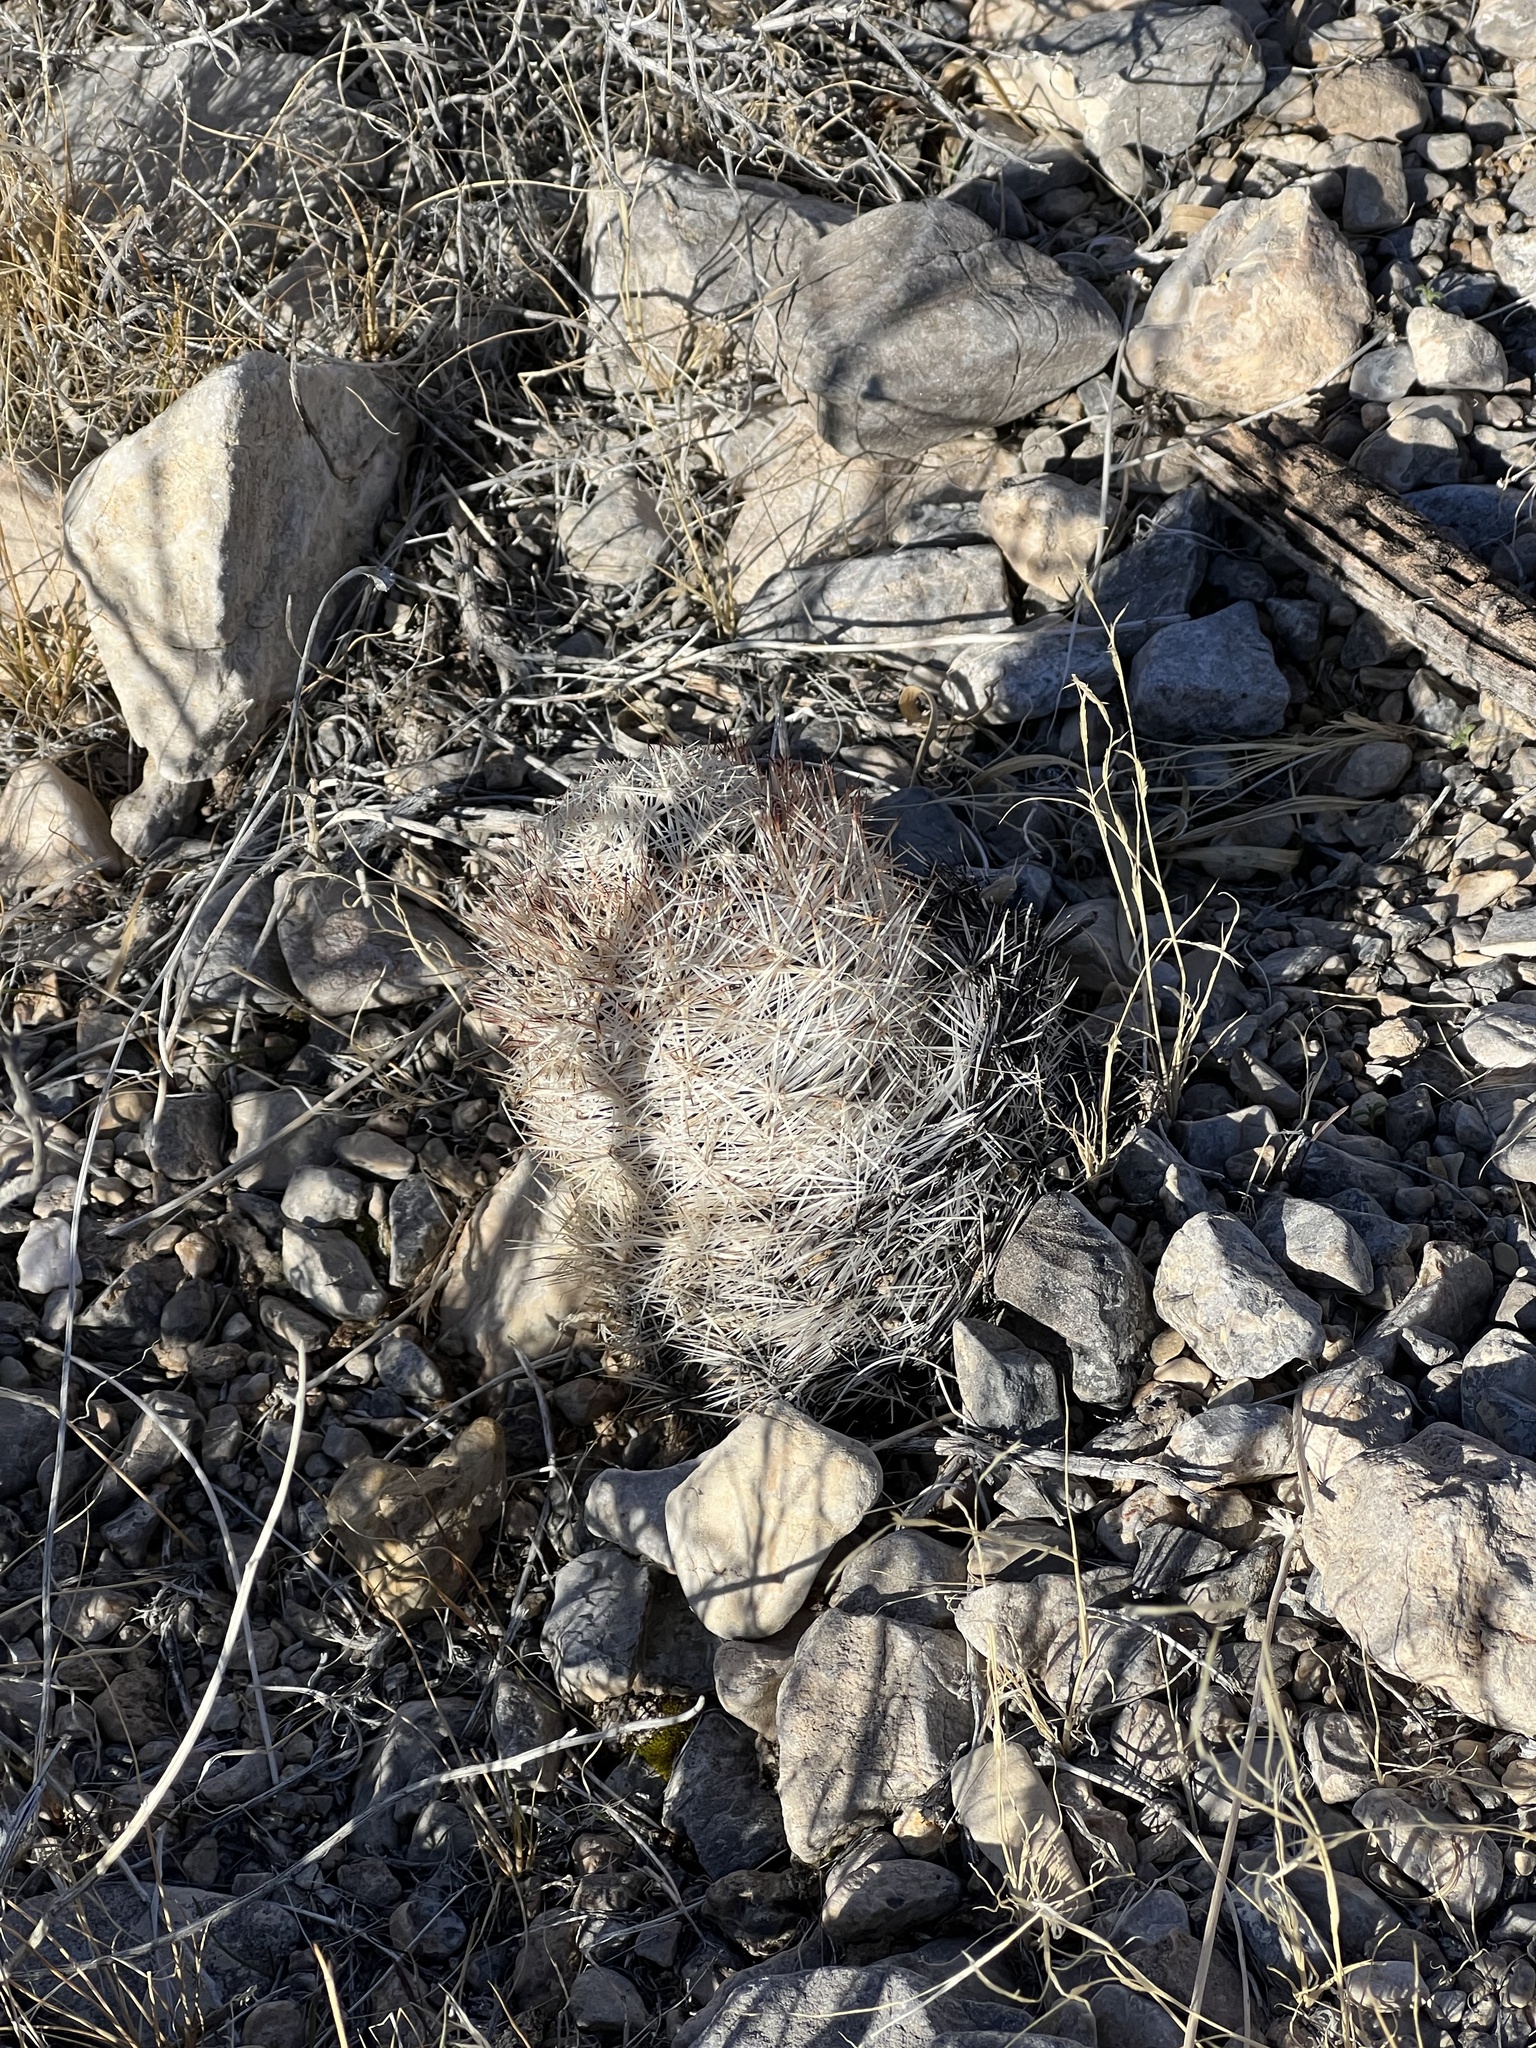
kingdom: Plantae
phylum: Tracheophyta
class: Magnoliopsida
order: Caryophyllales
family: Cactaceae
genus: Pelecyphora
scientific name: Pelecyphora dasyacantha
